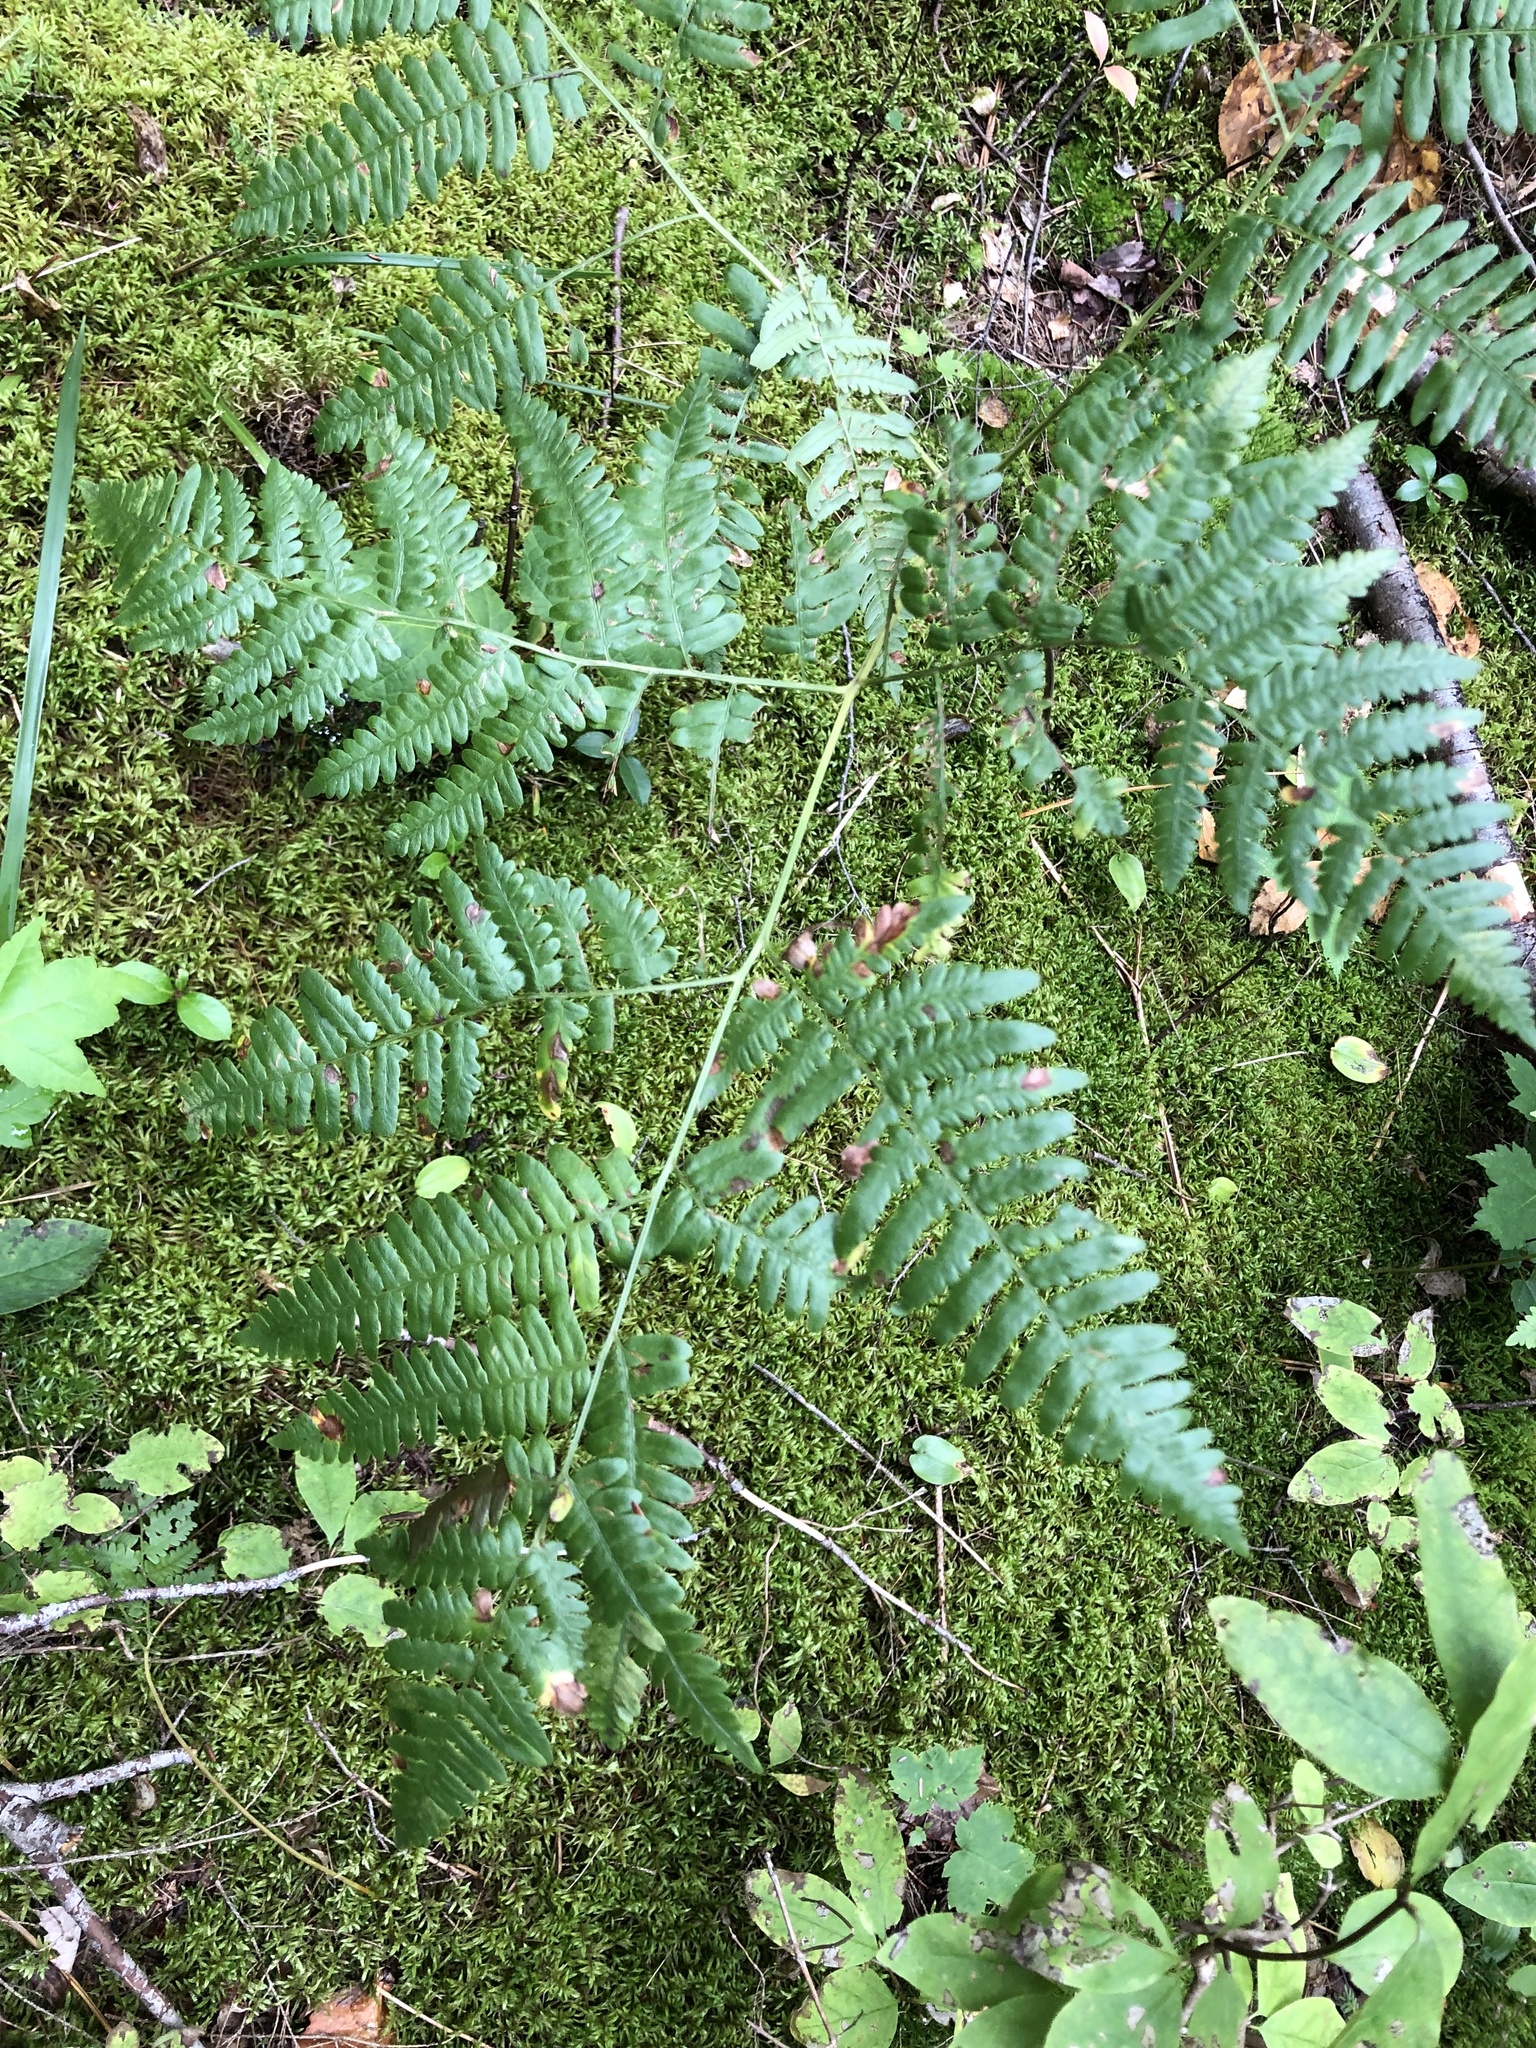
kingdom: Plantae
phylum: Tracheophyta
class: Polypodiopsida
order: Polypodiales
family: Dennstaedtiaceae
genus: Pteridium
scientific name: Pteridium aquilinum
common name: Bracken
